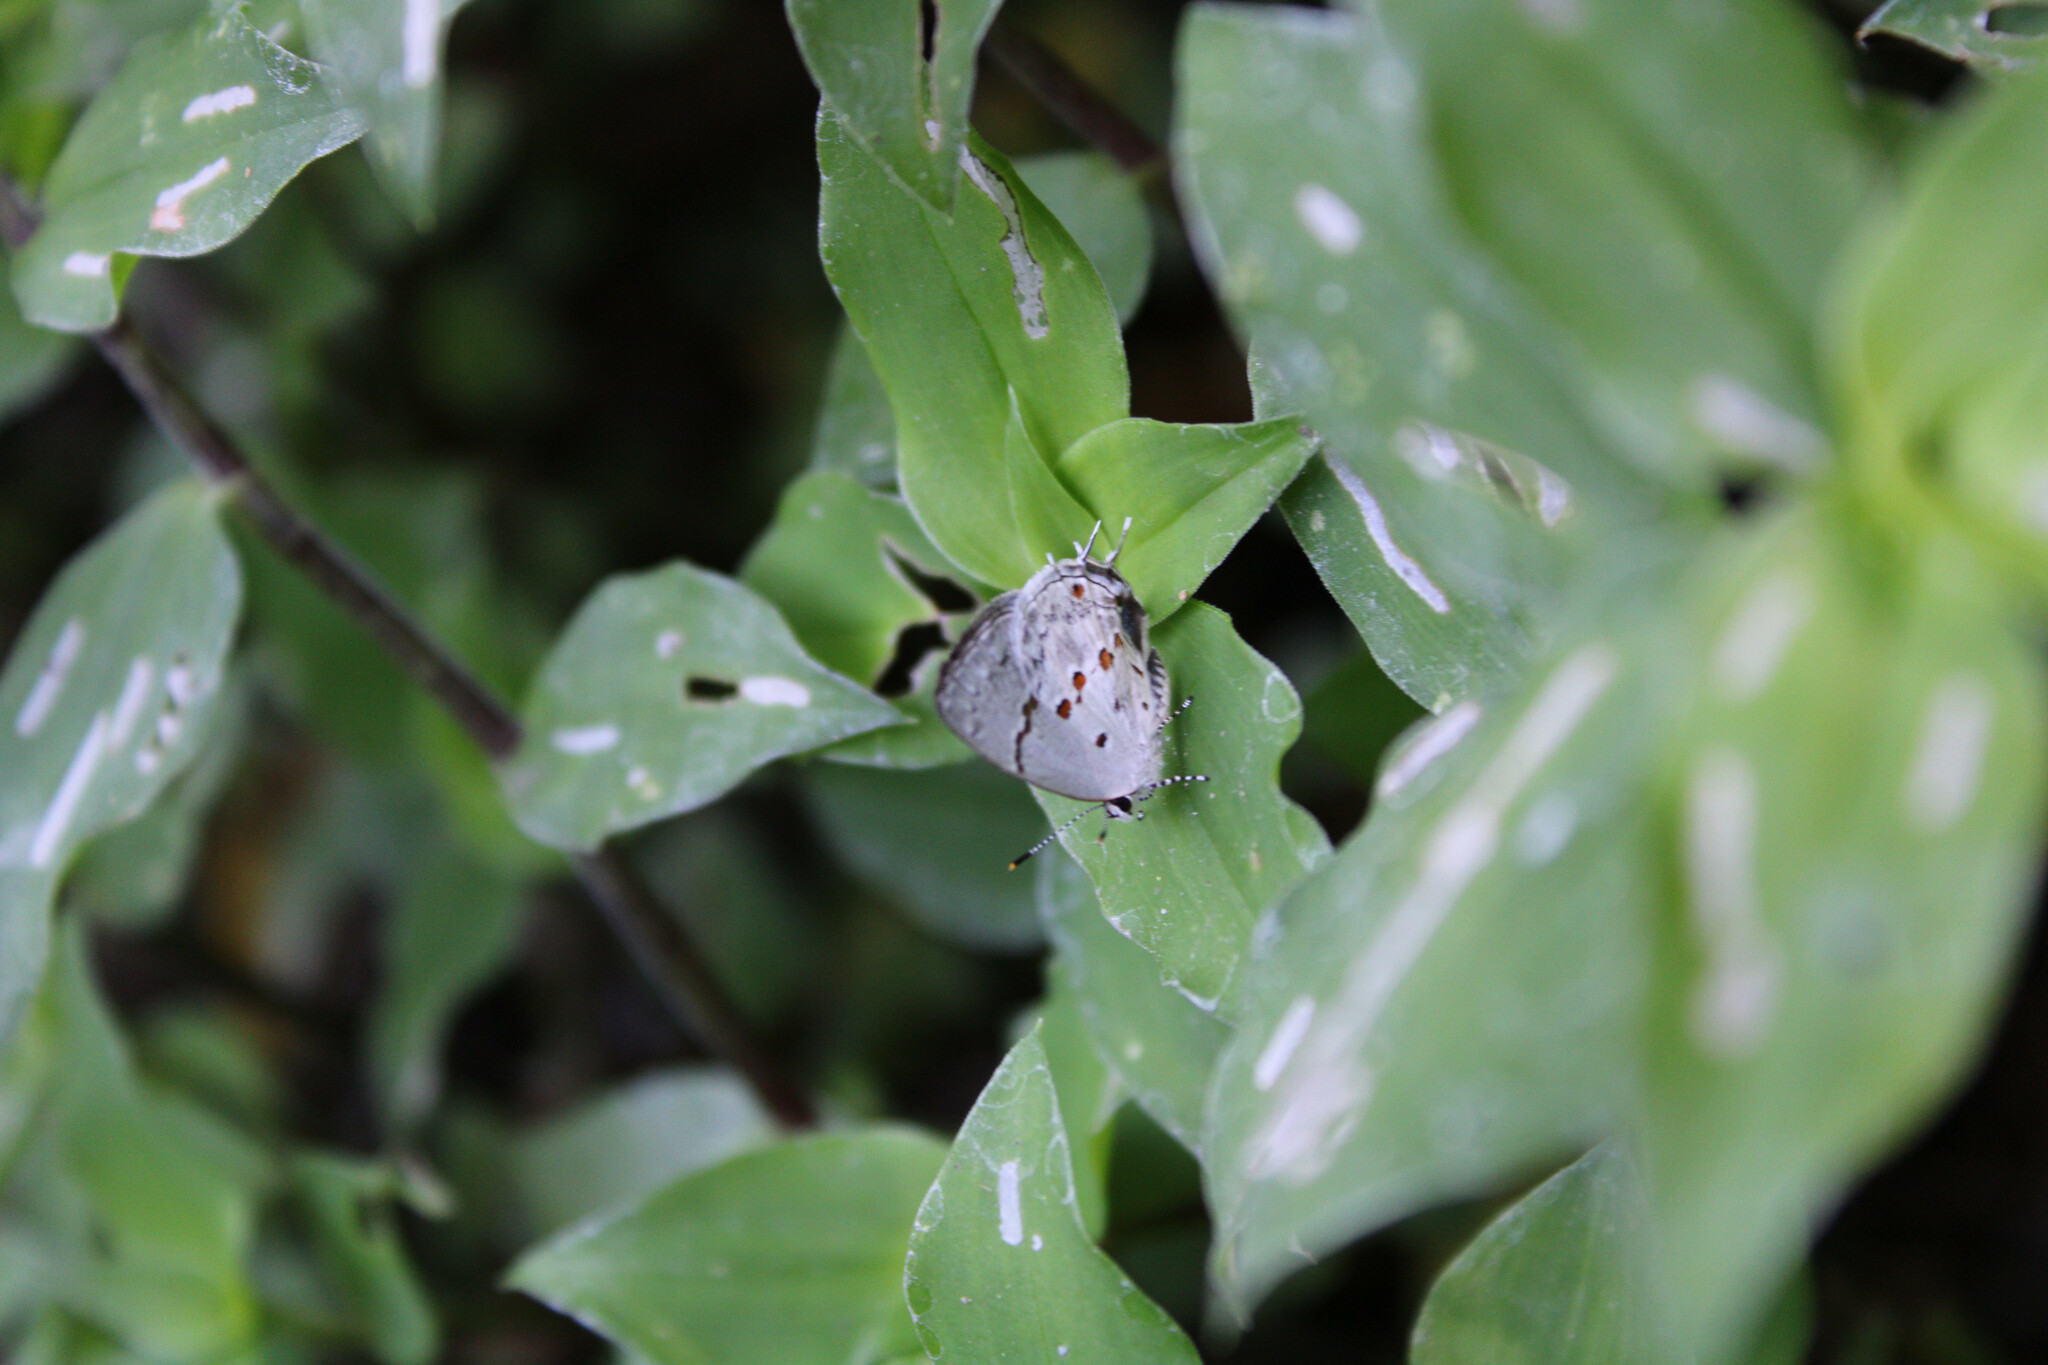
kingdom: Animalia
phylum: Arthropoda
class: Insecta
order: Lepidoptera
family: Lycaenidae
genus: Thecla
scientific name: Thecla celmus
